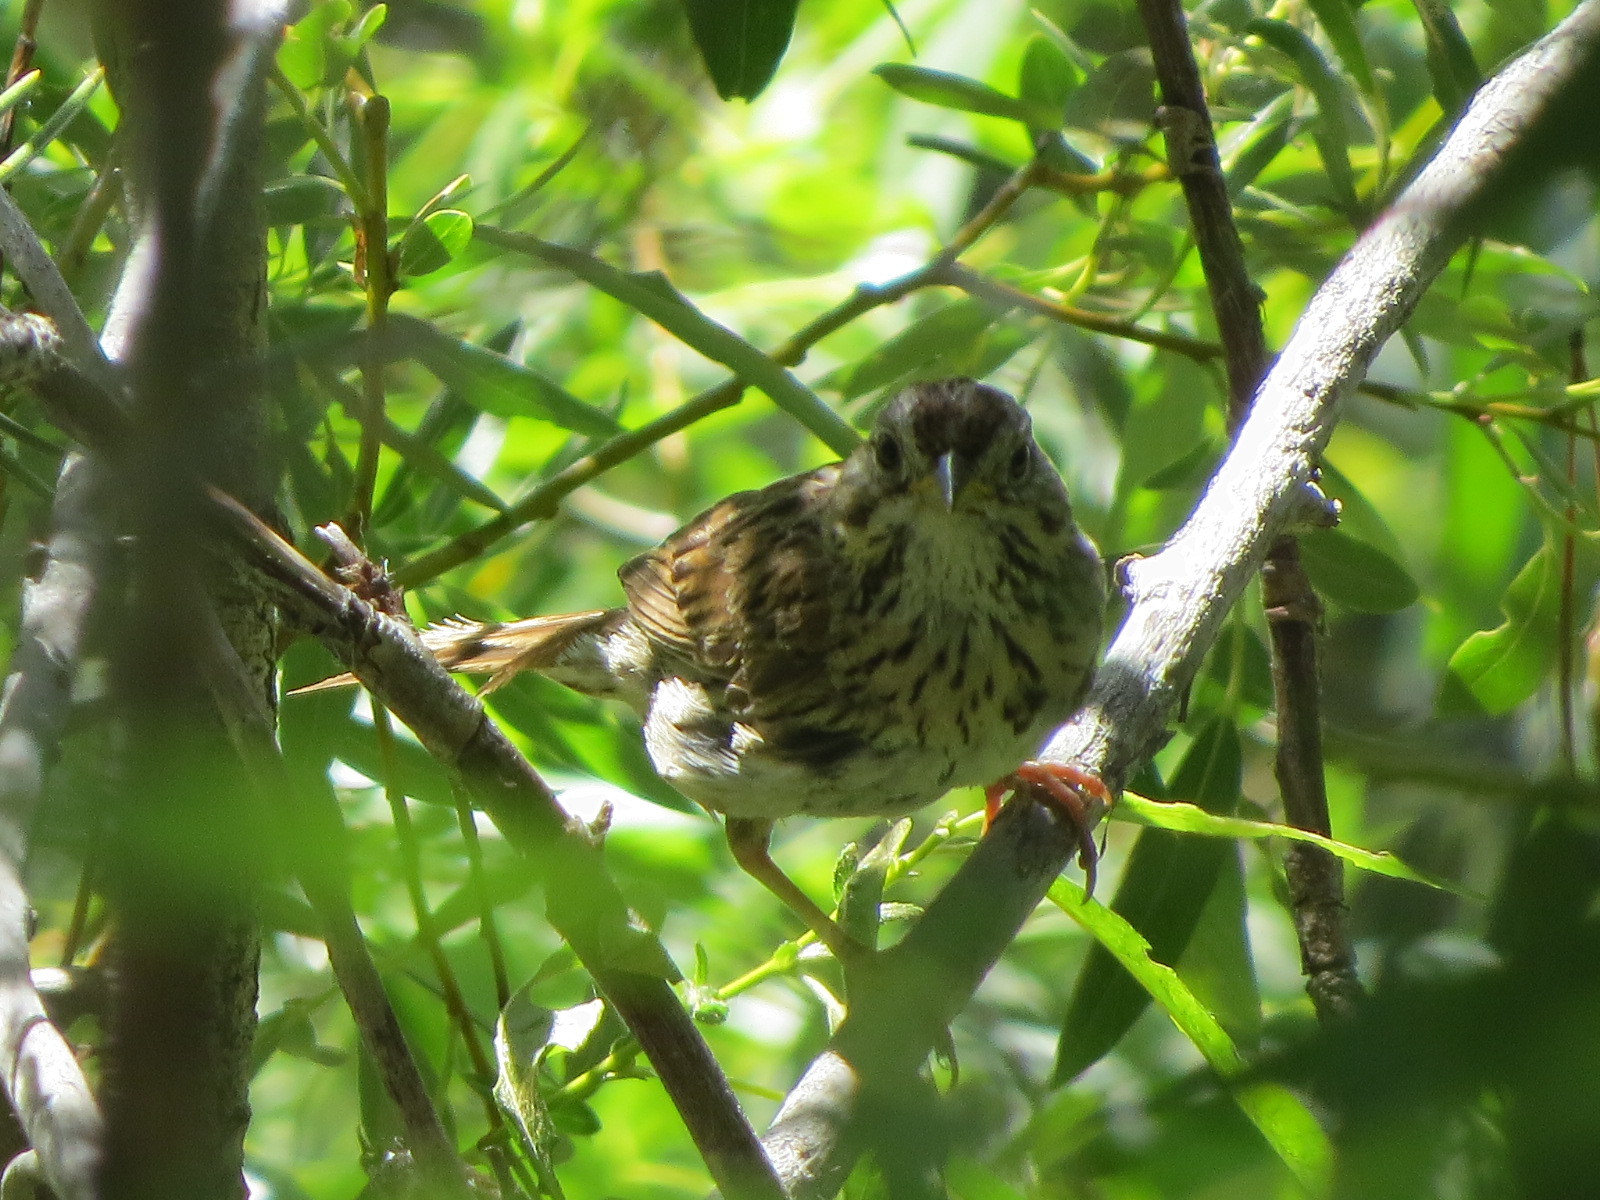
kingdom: Animalia
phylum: Chordata
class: Aves
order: Passeriformes
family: Passerellidae
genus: Melospiza
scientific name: Melospiza melodia
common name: Song sparrow
